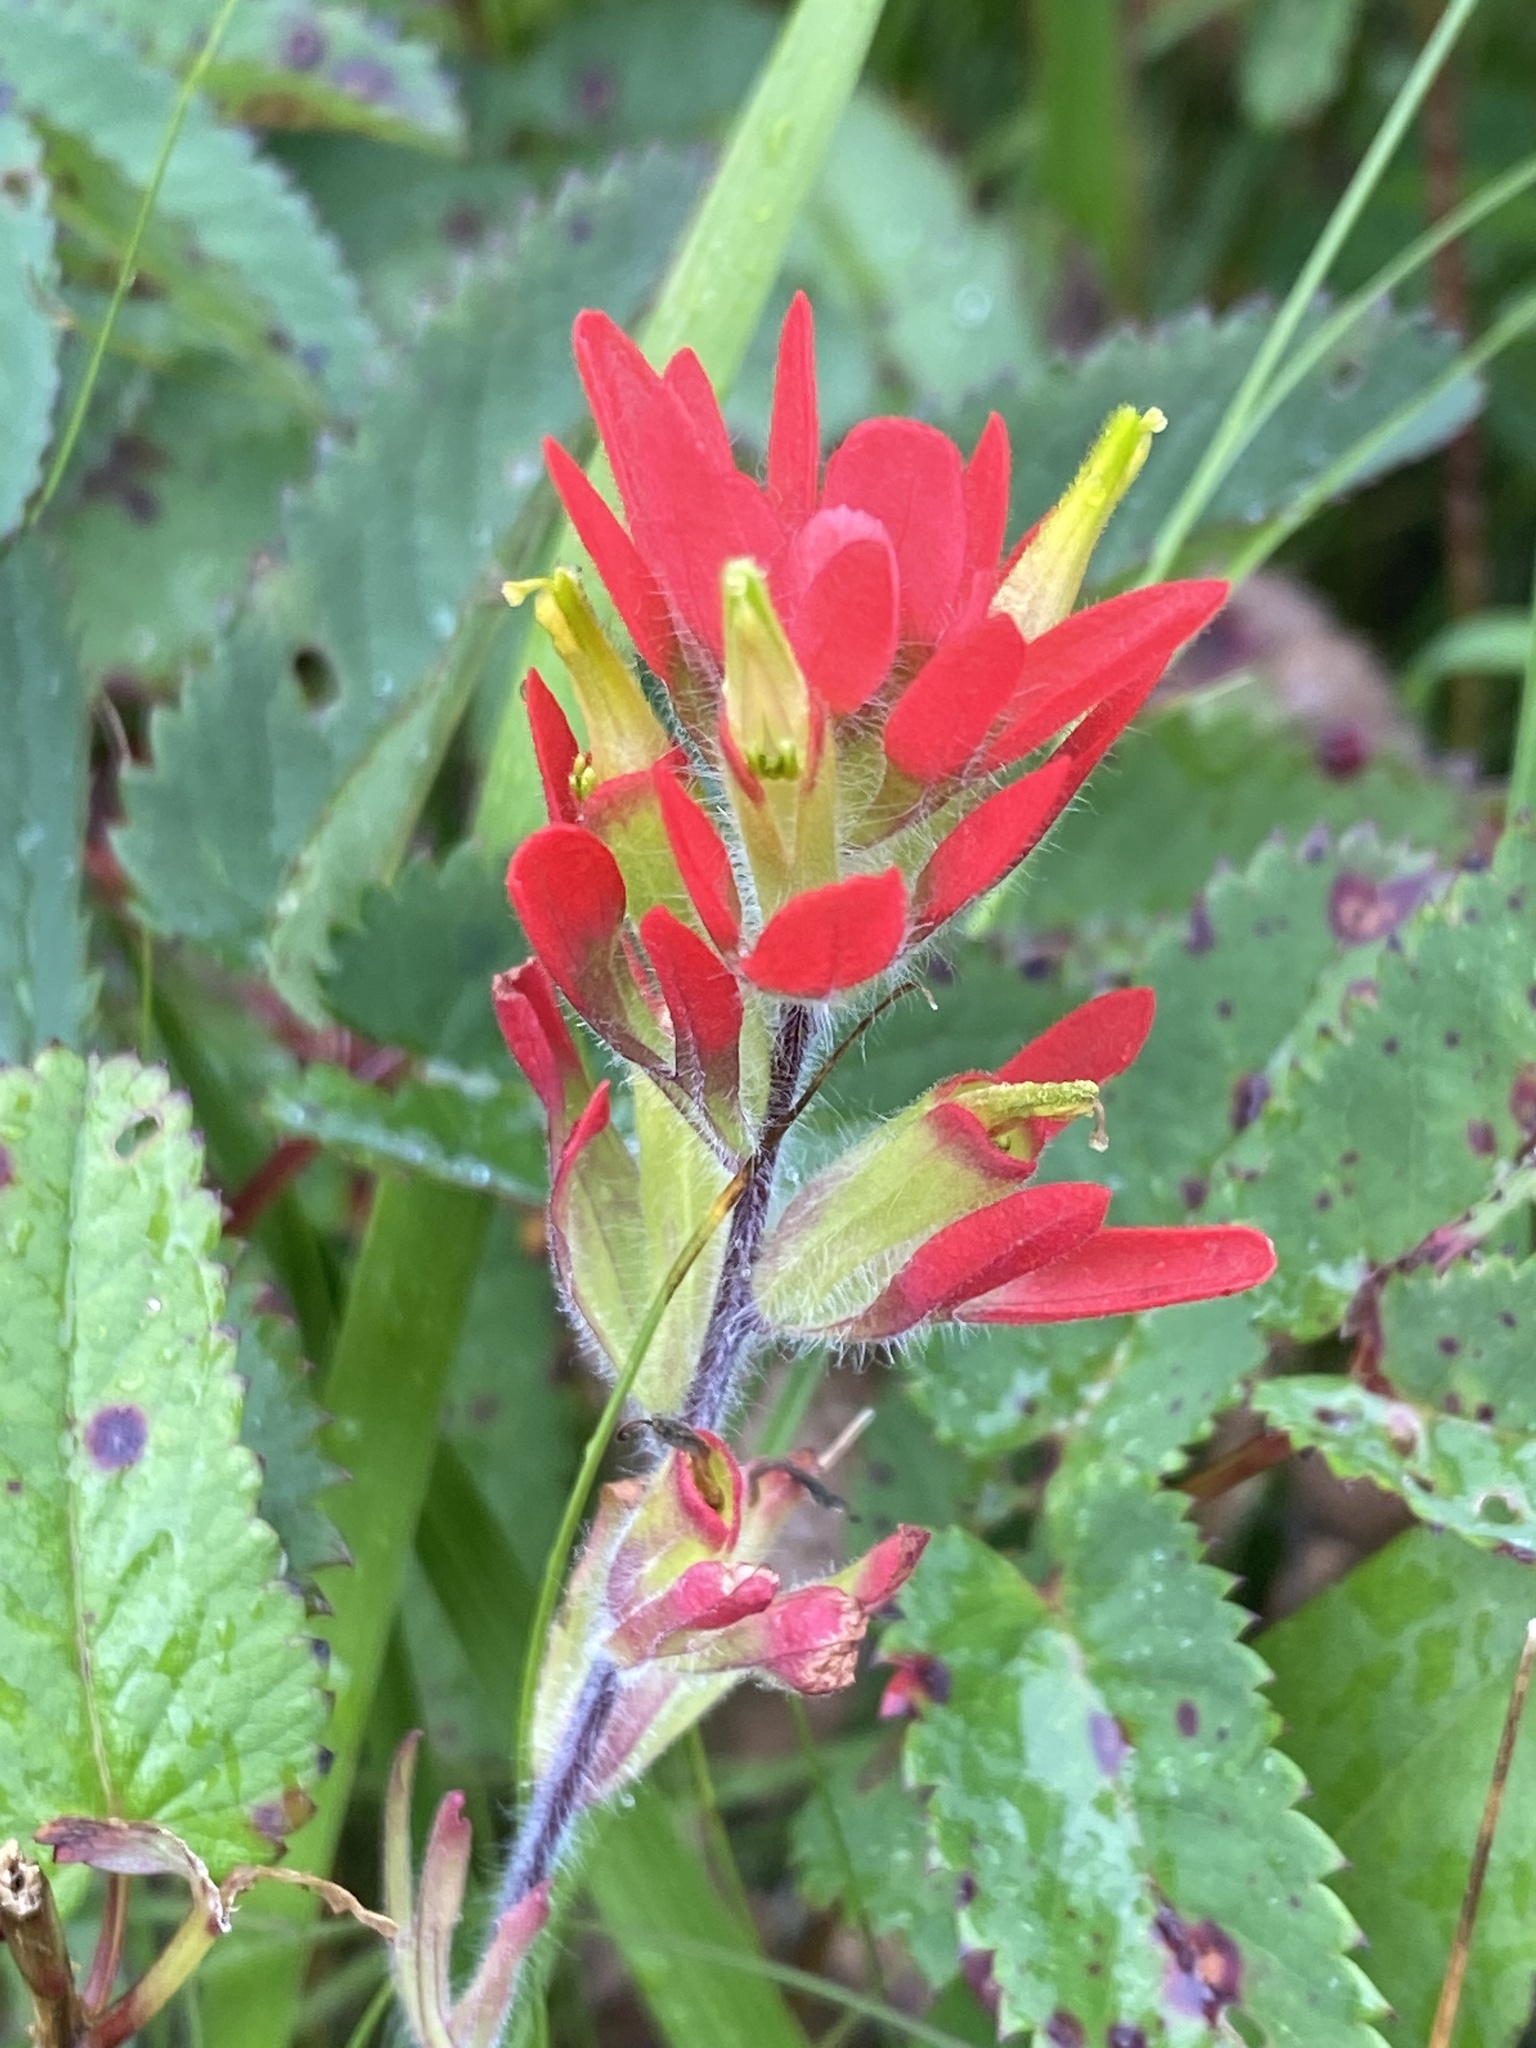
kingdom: Plantae
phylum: Tracheophyta
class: Magnoliopsida
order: Lamiales
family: Orobanchaceae
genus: Castilleja
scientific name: Castilleja coccinea
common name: Scarlet paintbrush
